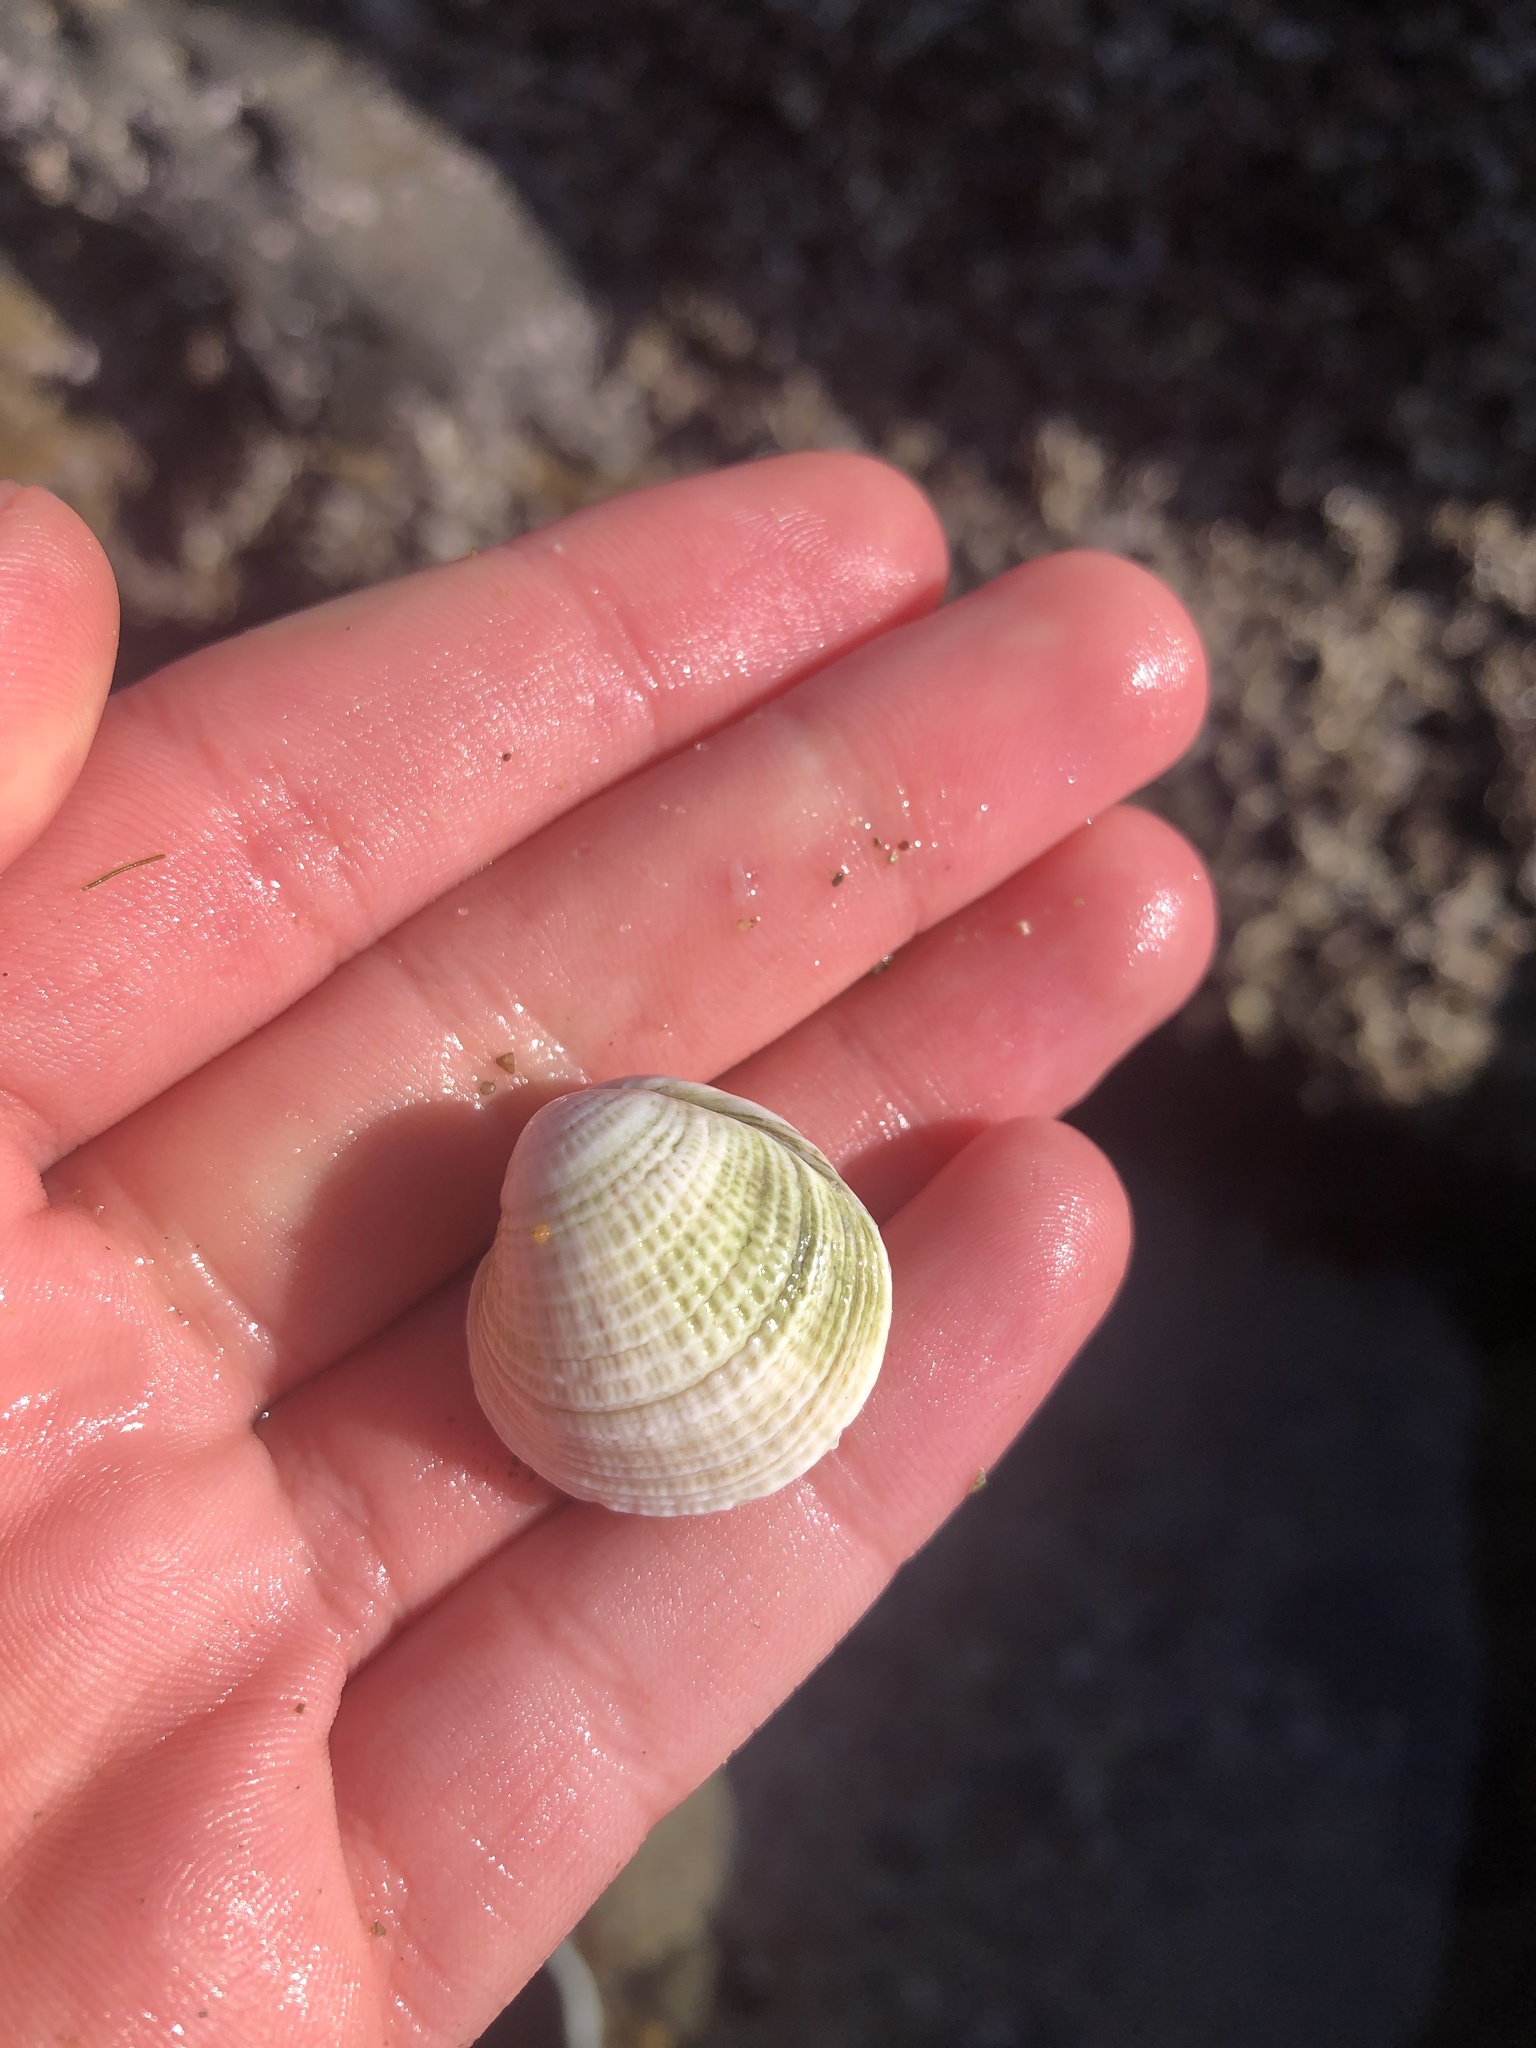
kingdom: Animalia
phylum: Mollusca
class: Bivalvia
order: Venerida
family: Veneridae
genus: Chione
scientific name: Chione undatella
